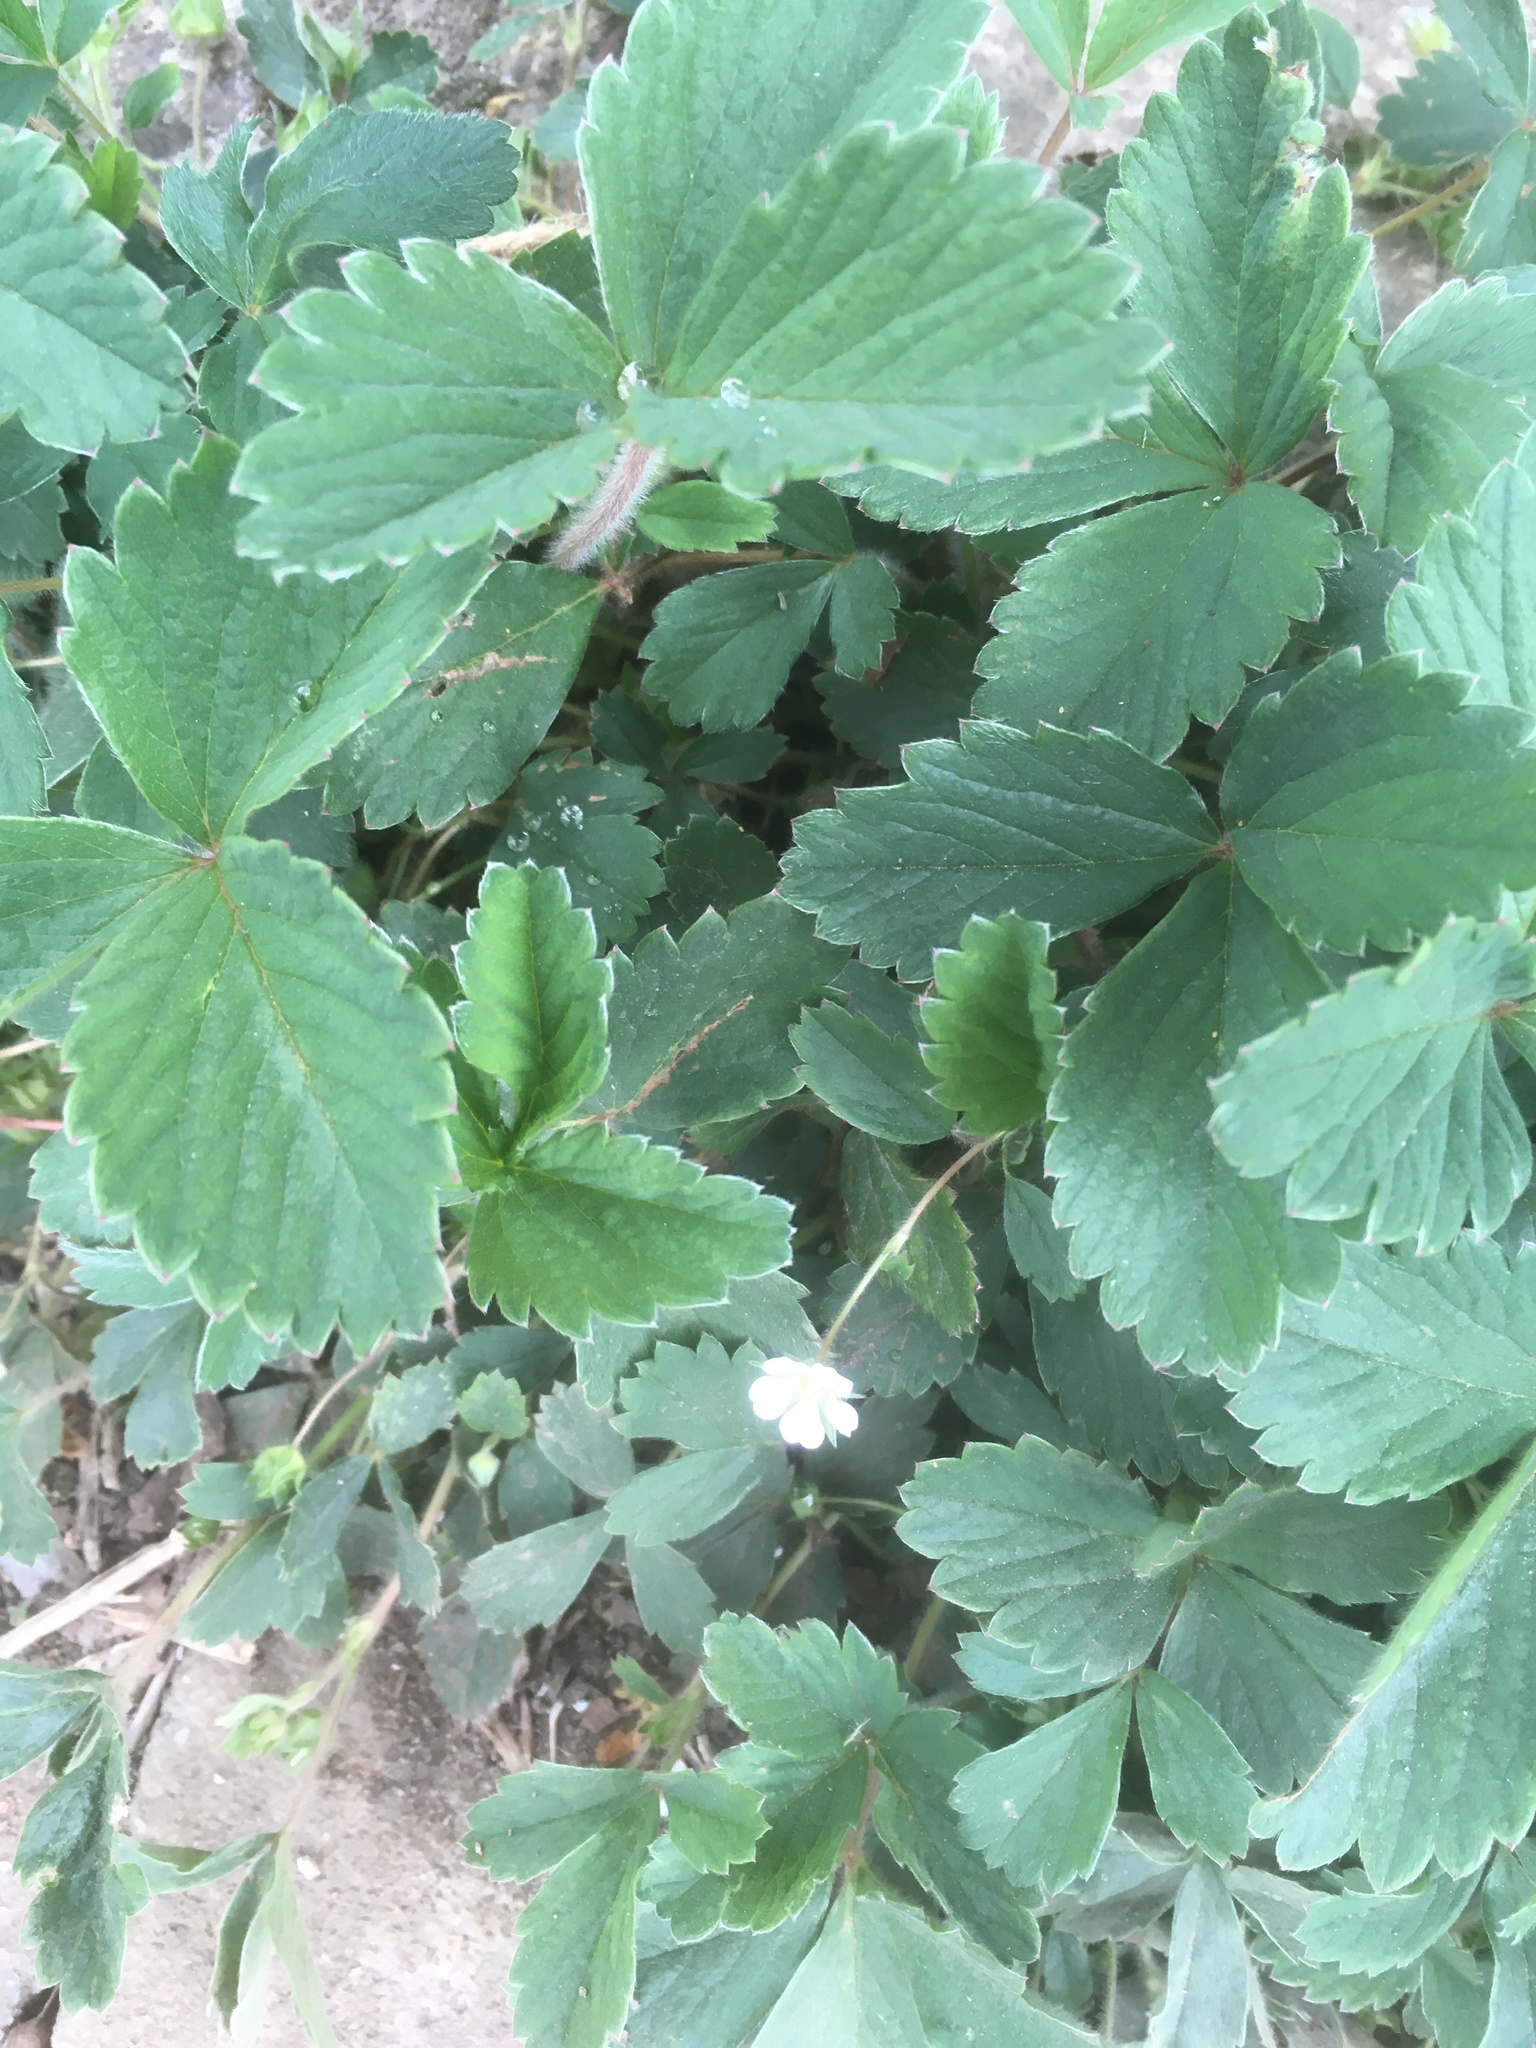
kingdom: Plantae
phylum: Tracheophyta
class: Magnoliopsida
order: Rosales
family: Rosaceae
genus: Potentilla
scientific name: Potentilla sterilis
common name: Barren strawberry
